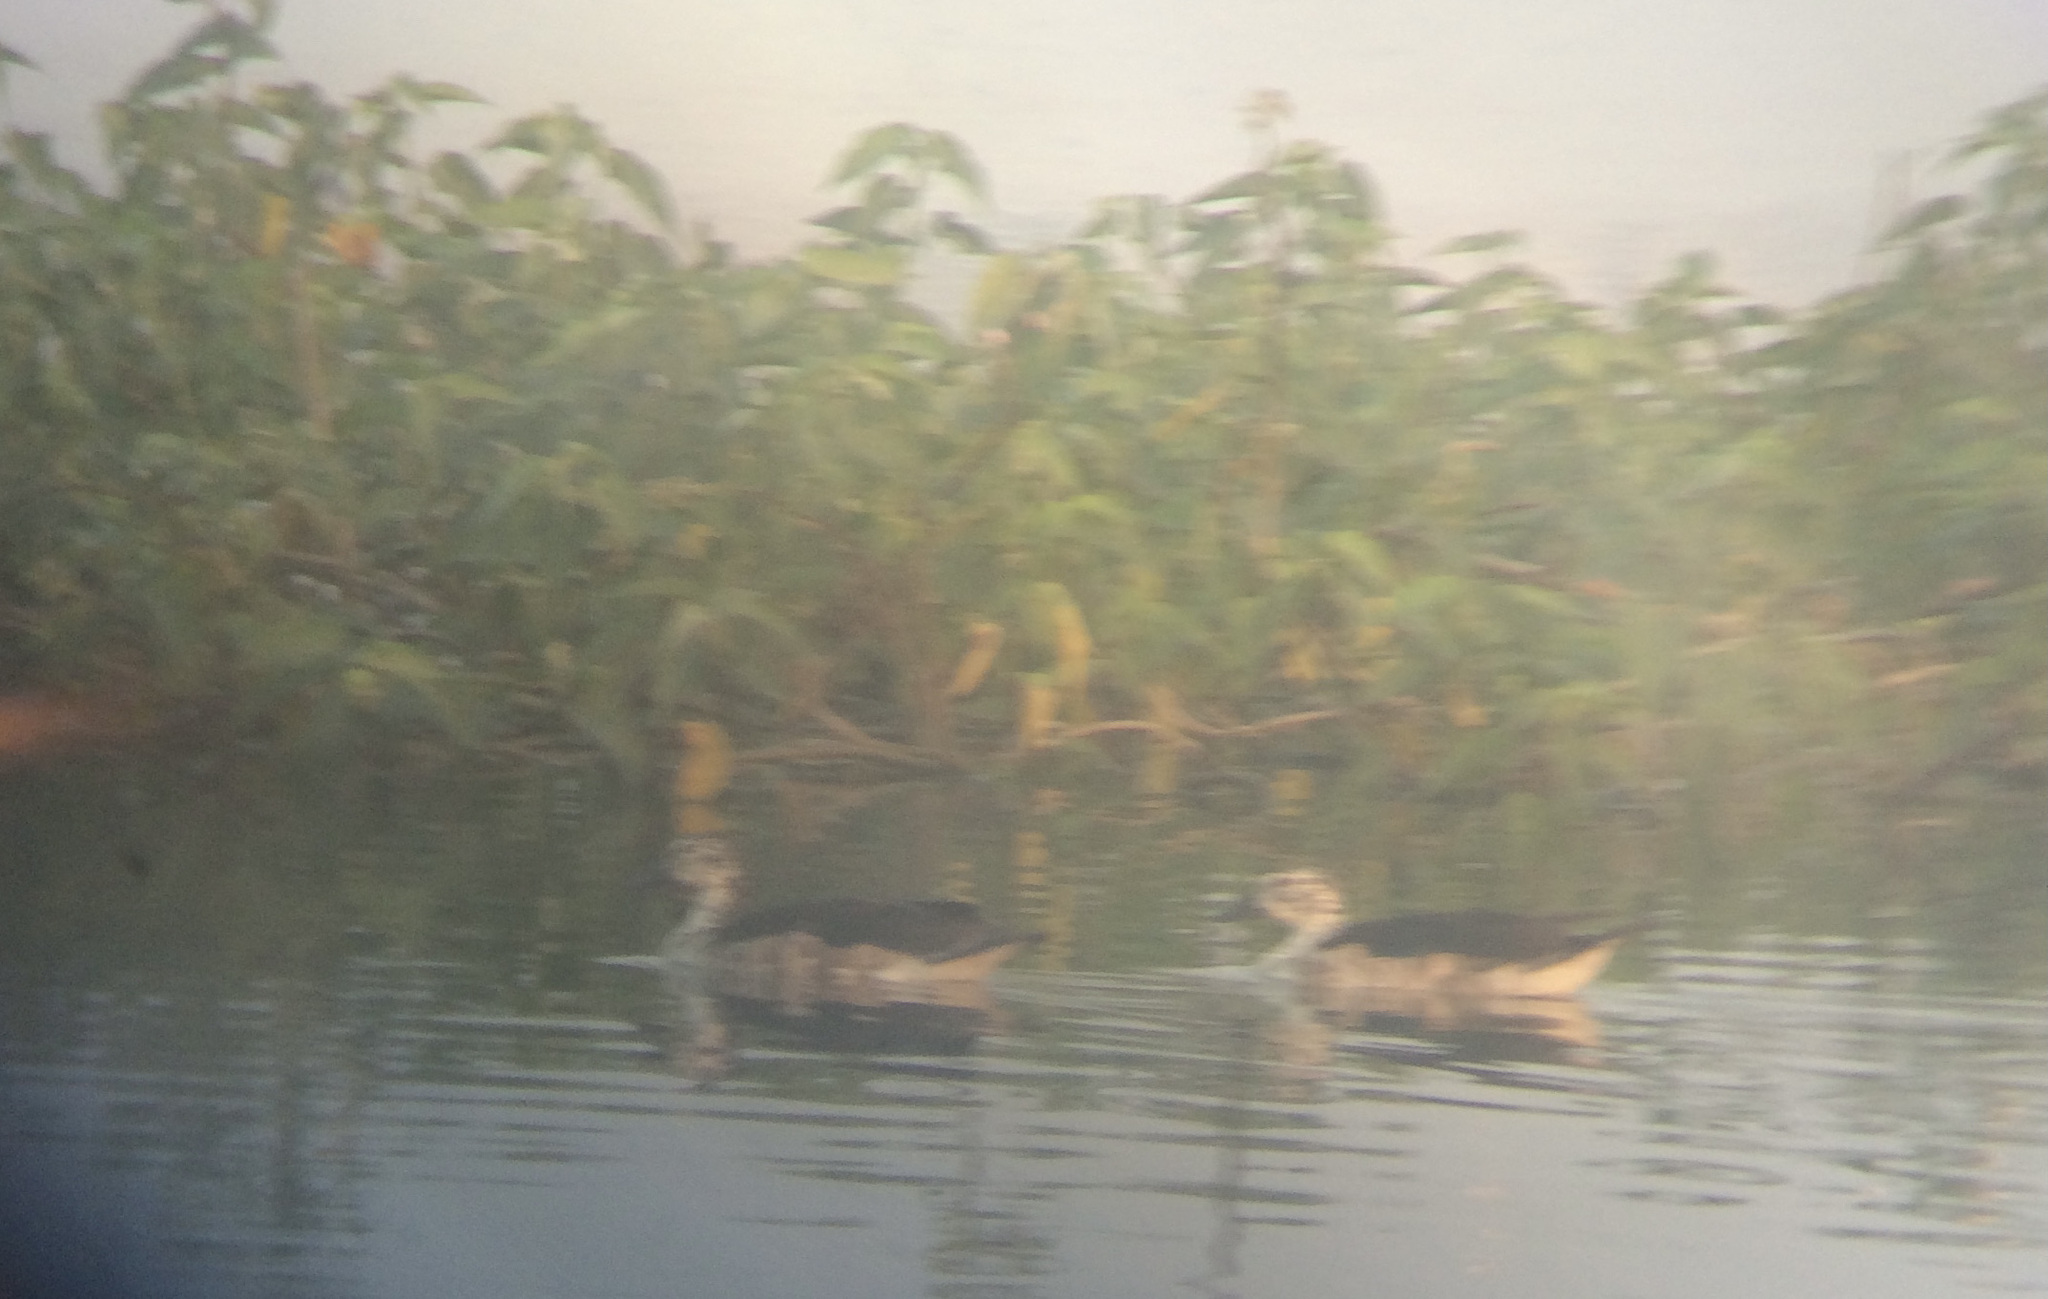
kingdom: Animalia
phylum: Chordata
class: Aves
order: Anseriformes
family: Anatidae
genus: Sarkidiornis
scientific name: Sarkidiornis melanotos
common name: Comb duck
